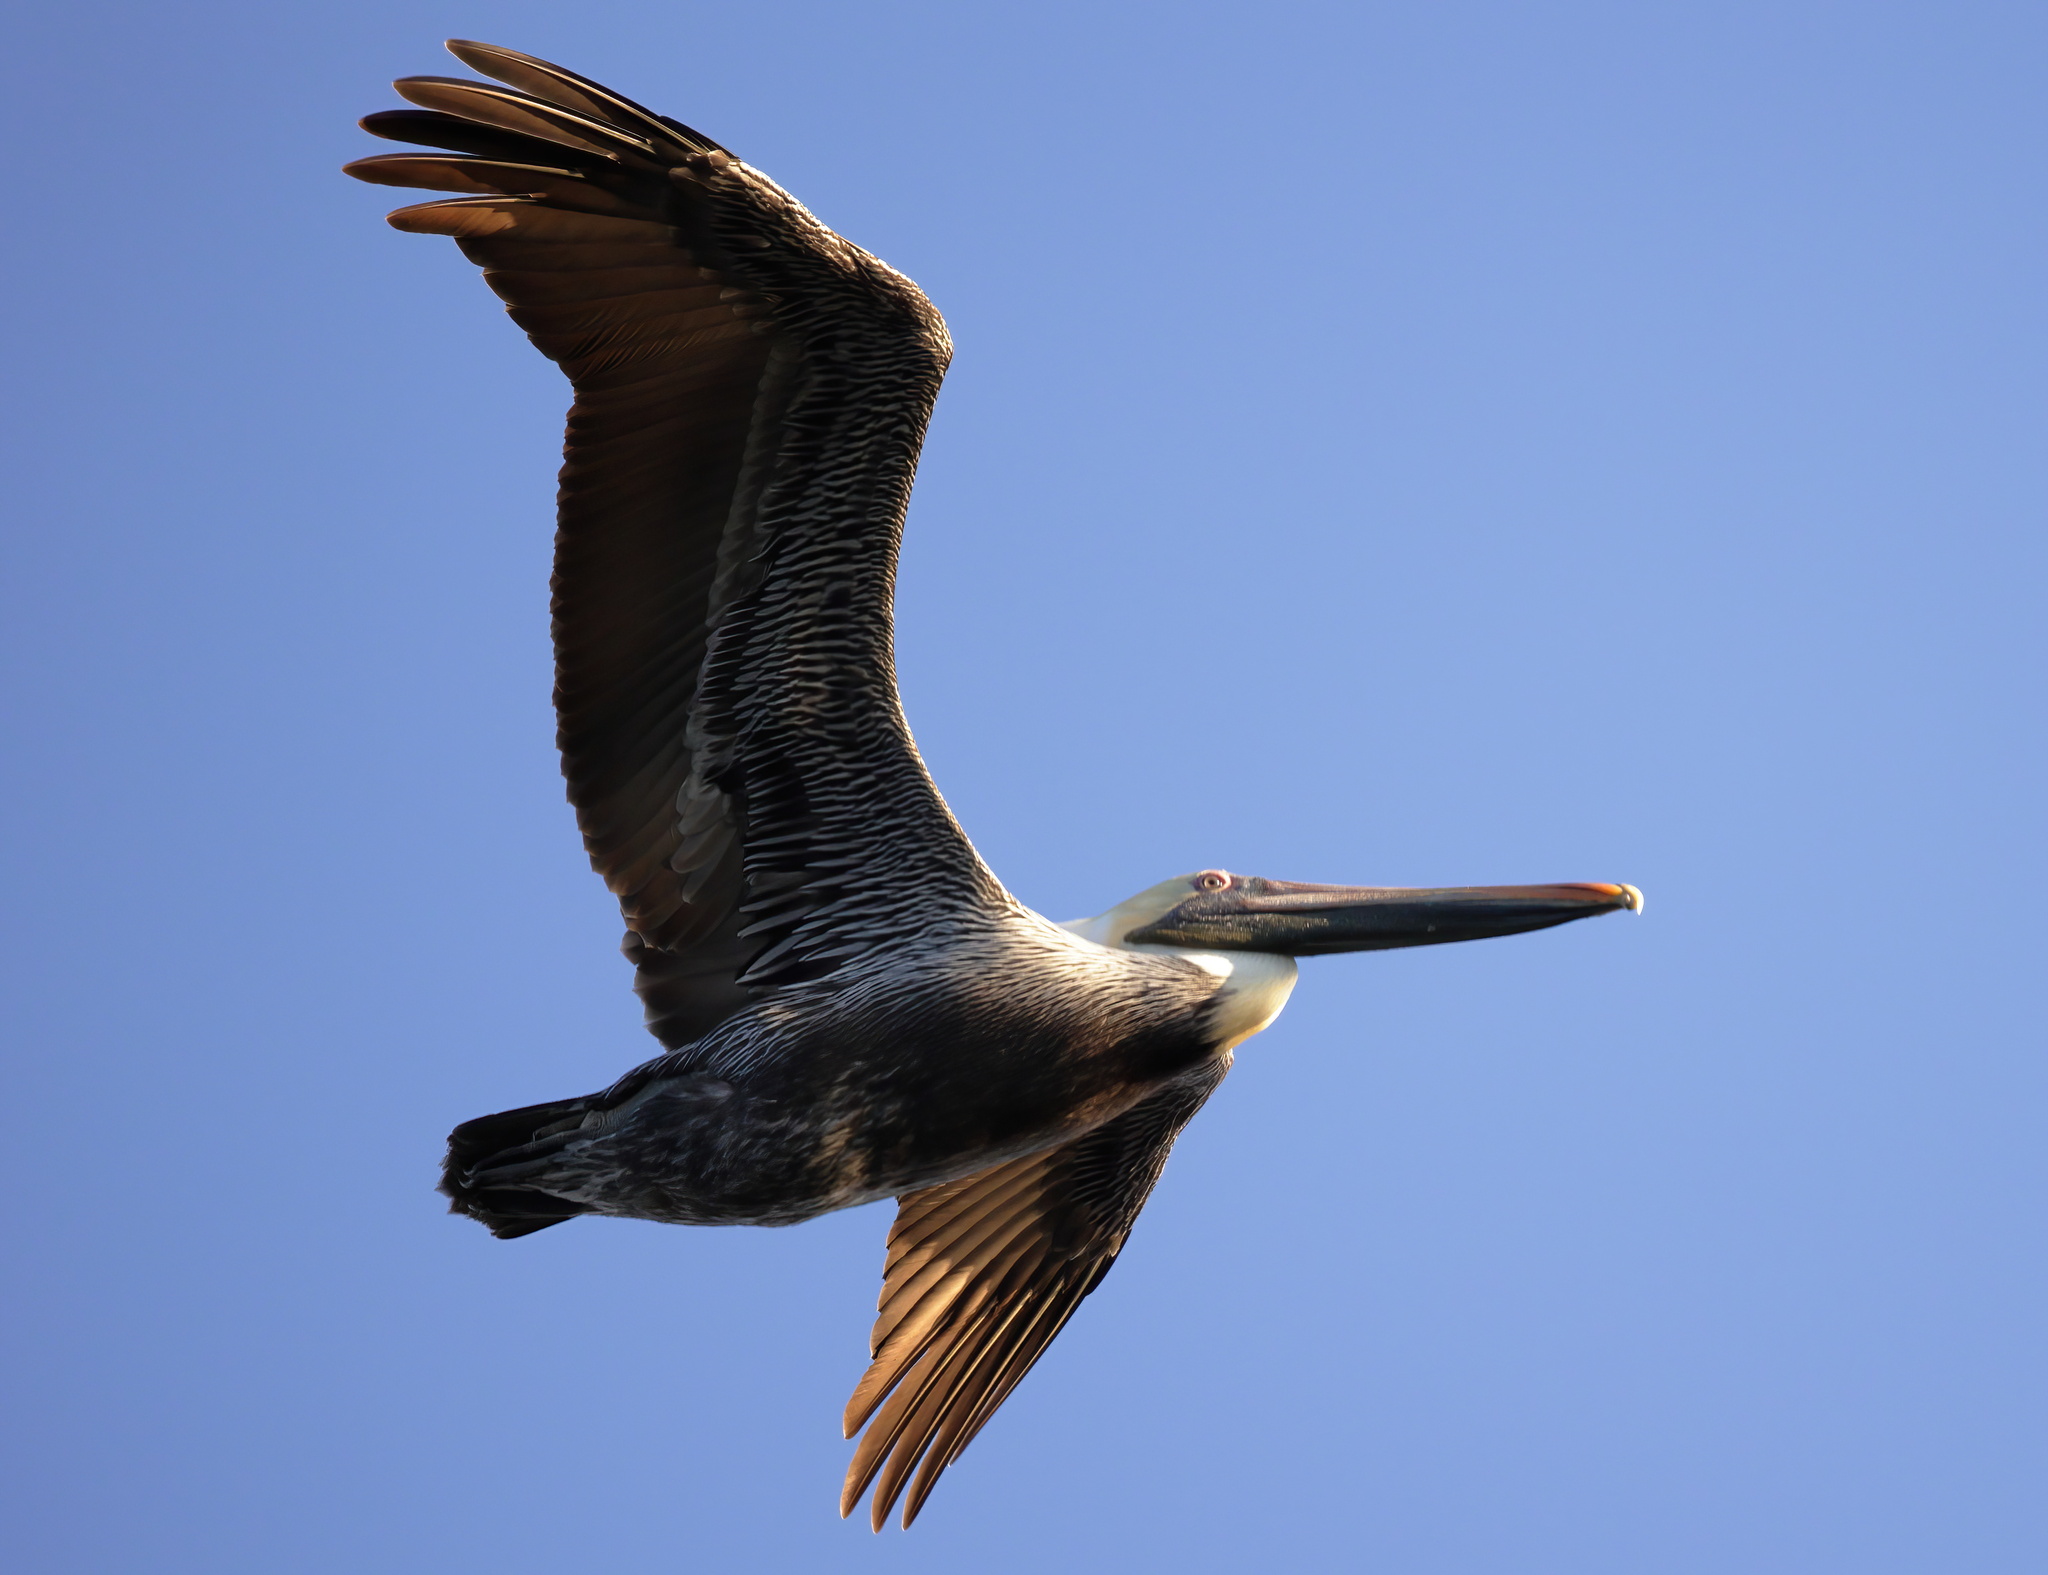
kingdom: Animalia
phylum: Chordata
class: Aves
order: Pelecaniformes
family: Pelecanidae
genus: Pelecanus
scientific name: Pelecanus occidentalis
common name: Brown pelican
